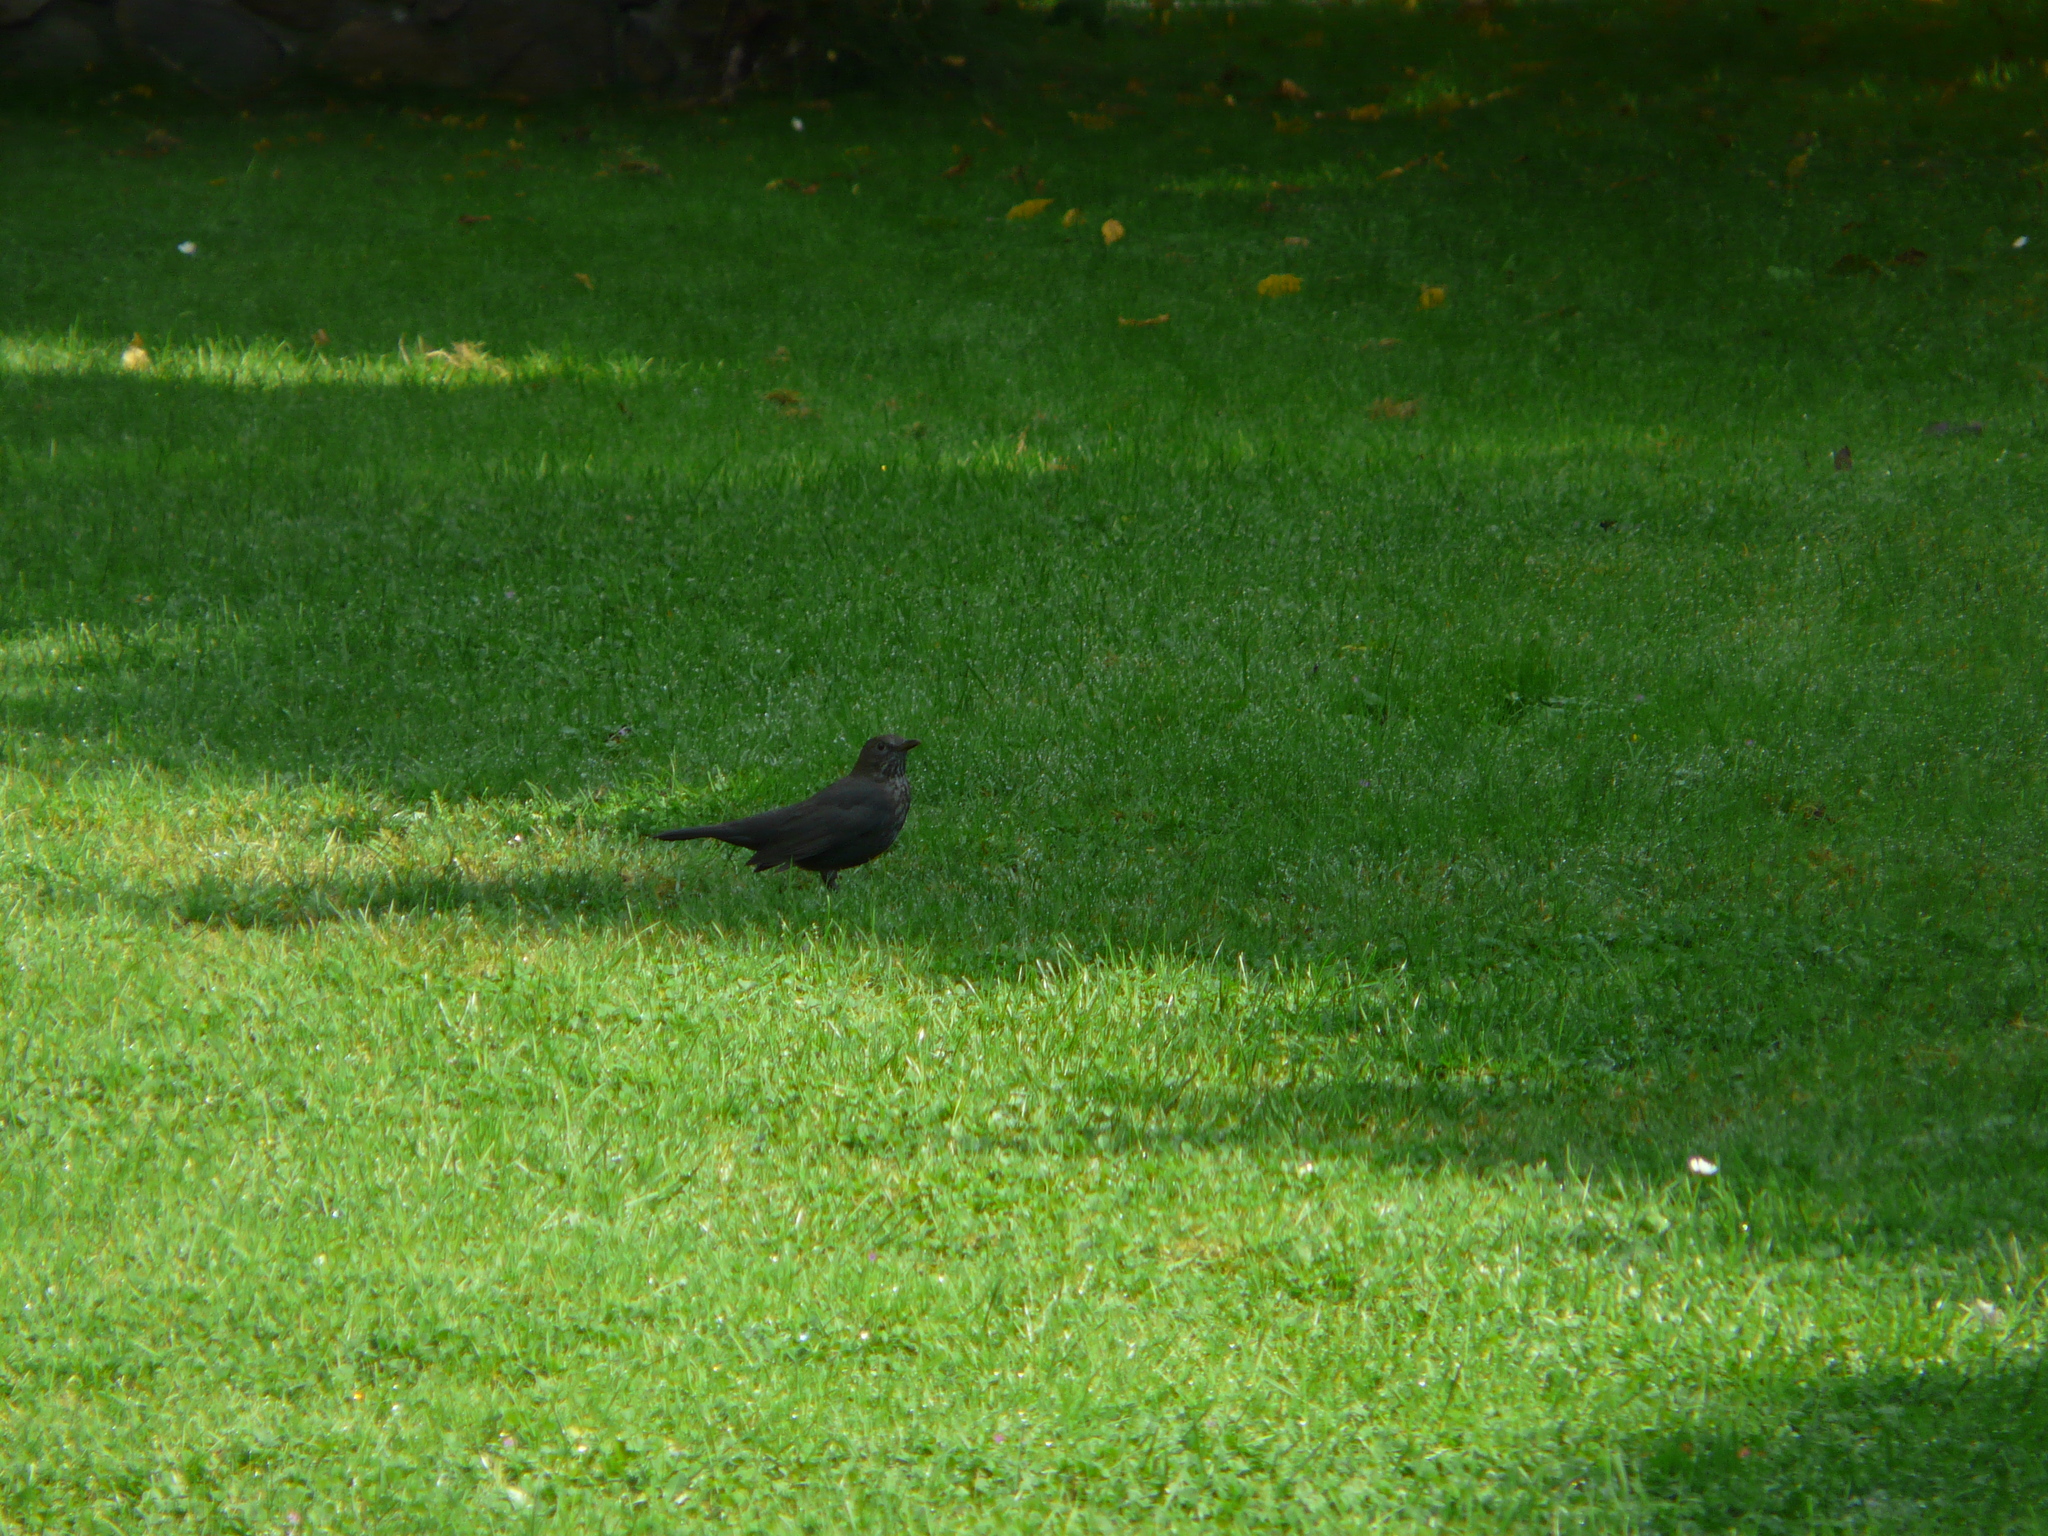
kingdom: Animalia
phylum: Chordata
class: Aves
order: Passeriformes
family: Turdidae
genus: Turdus
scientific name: Turdus merula
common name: Common blackbird
